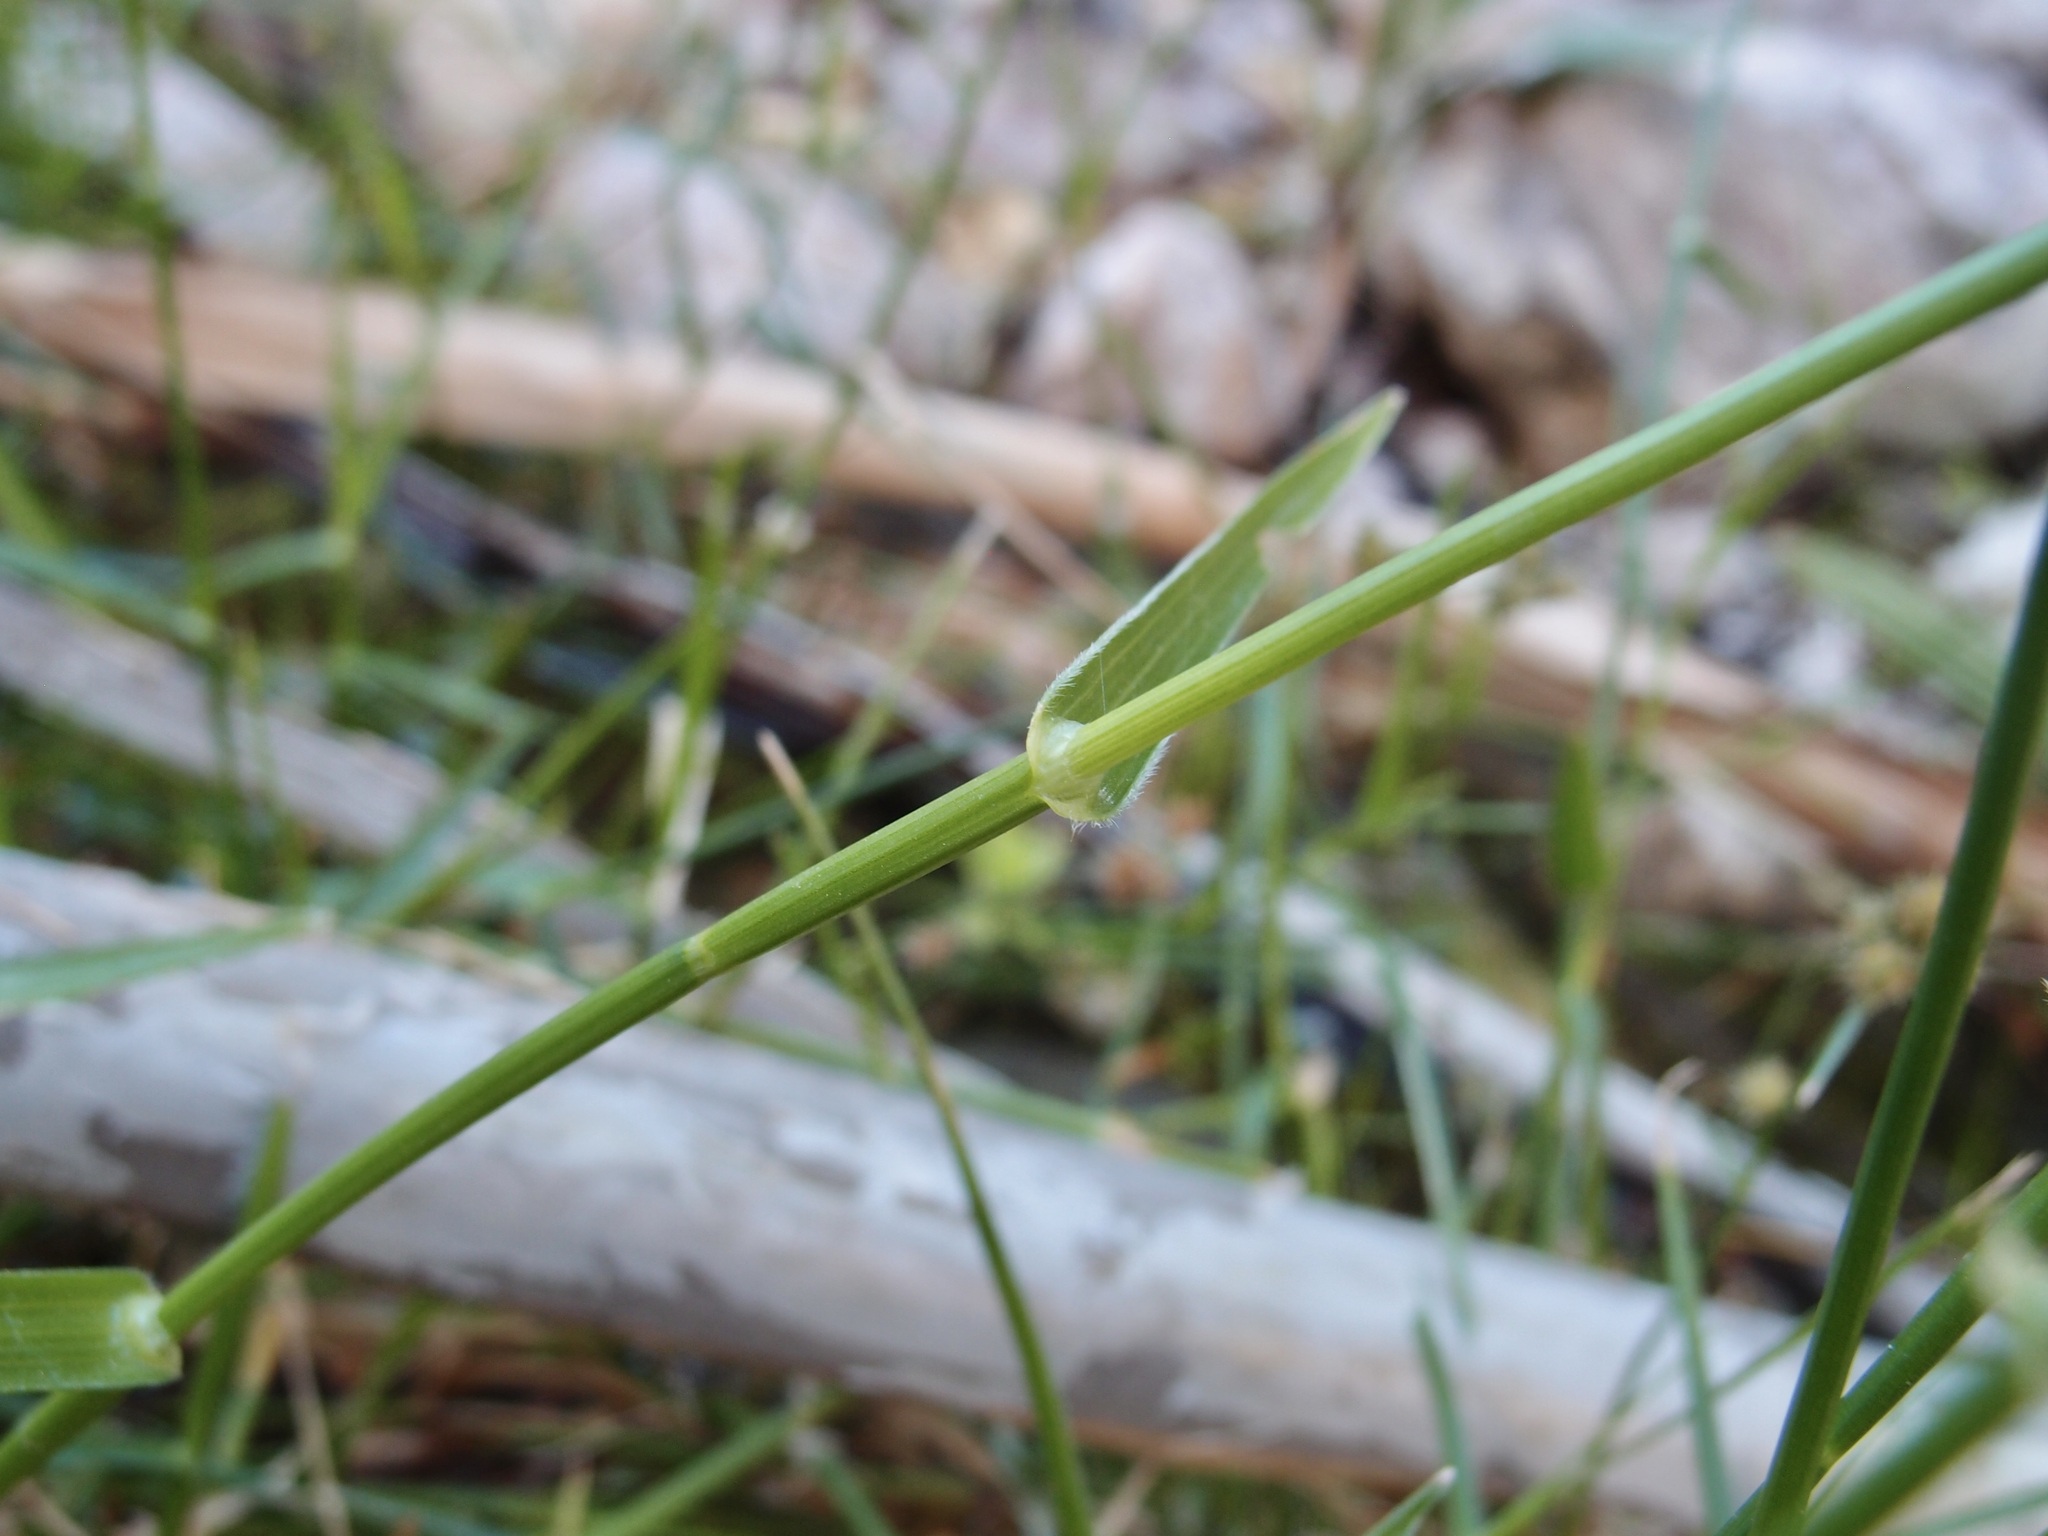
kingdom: Plantae
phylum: Tracheophyta
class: Liliopsida
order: Poales
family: Cyperaceae
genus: Fuirena
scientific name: Fuirena simplex
